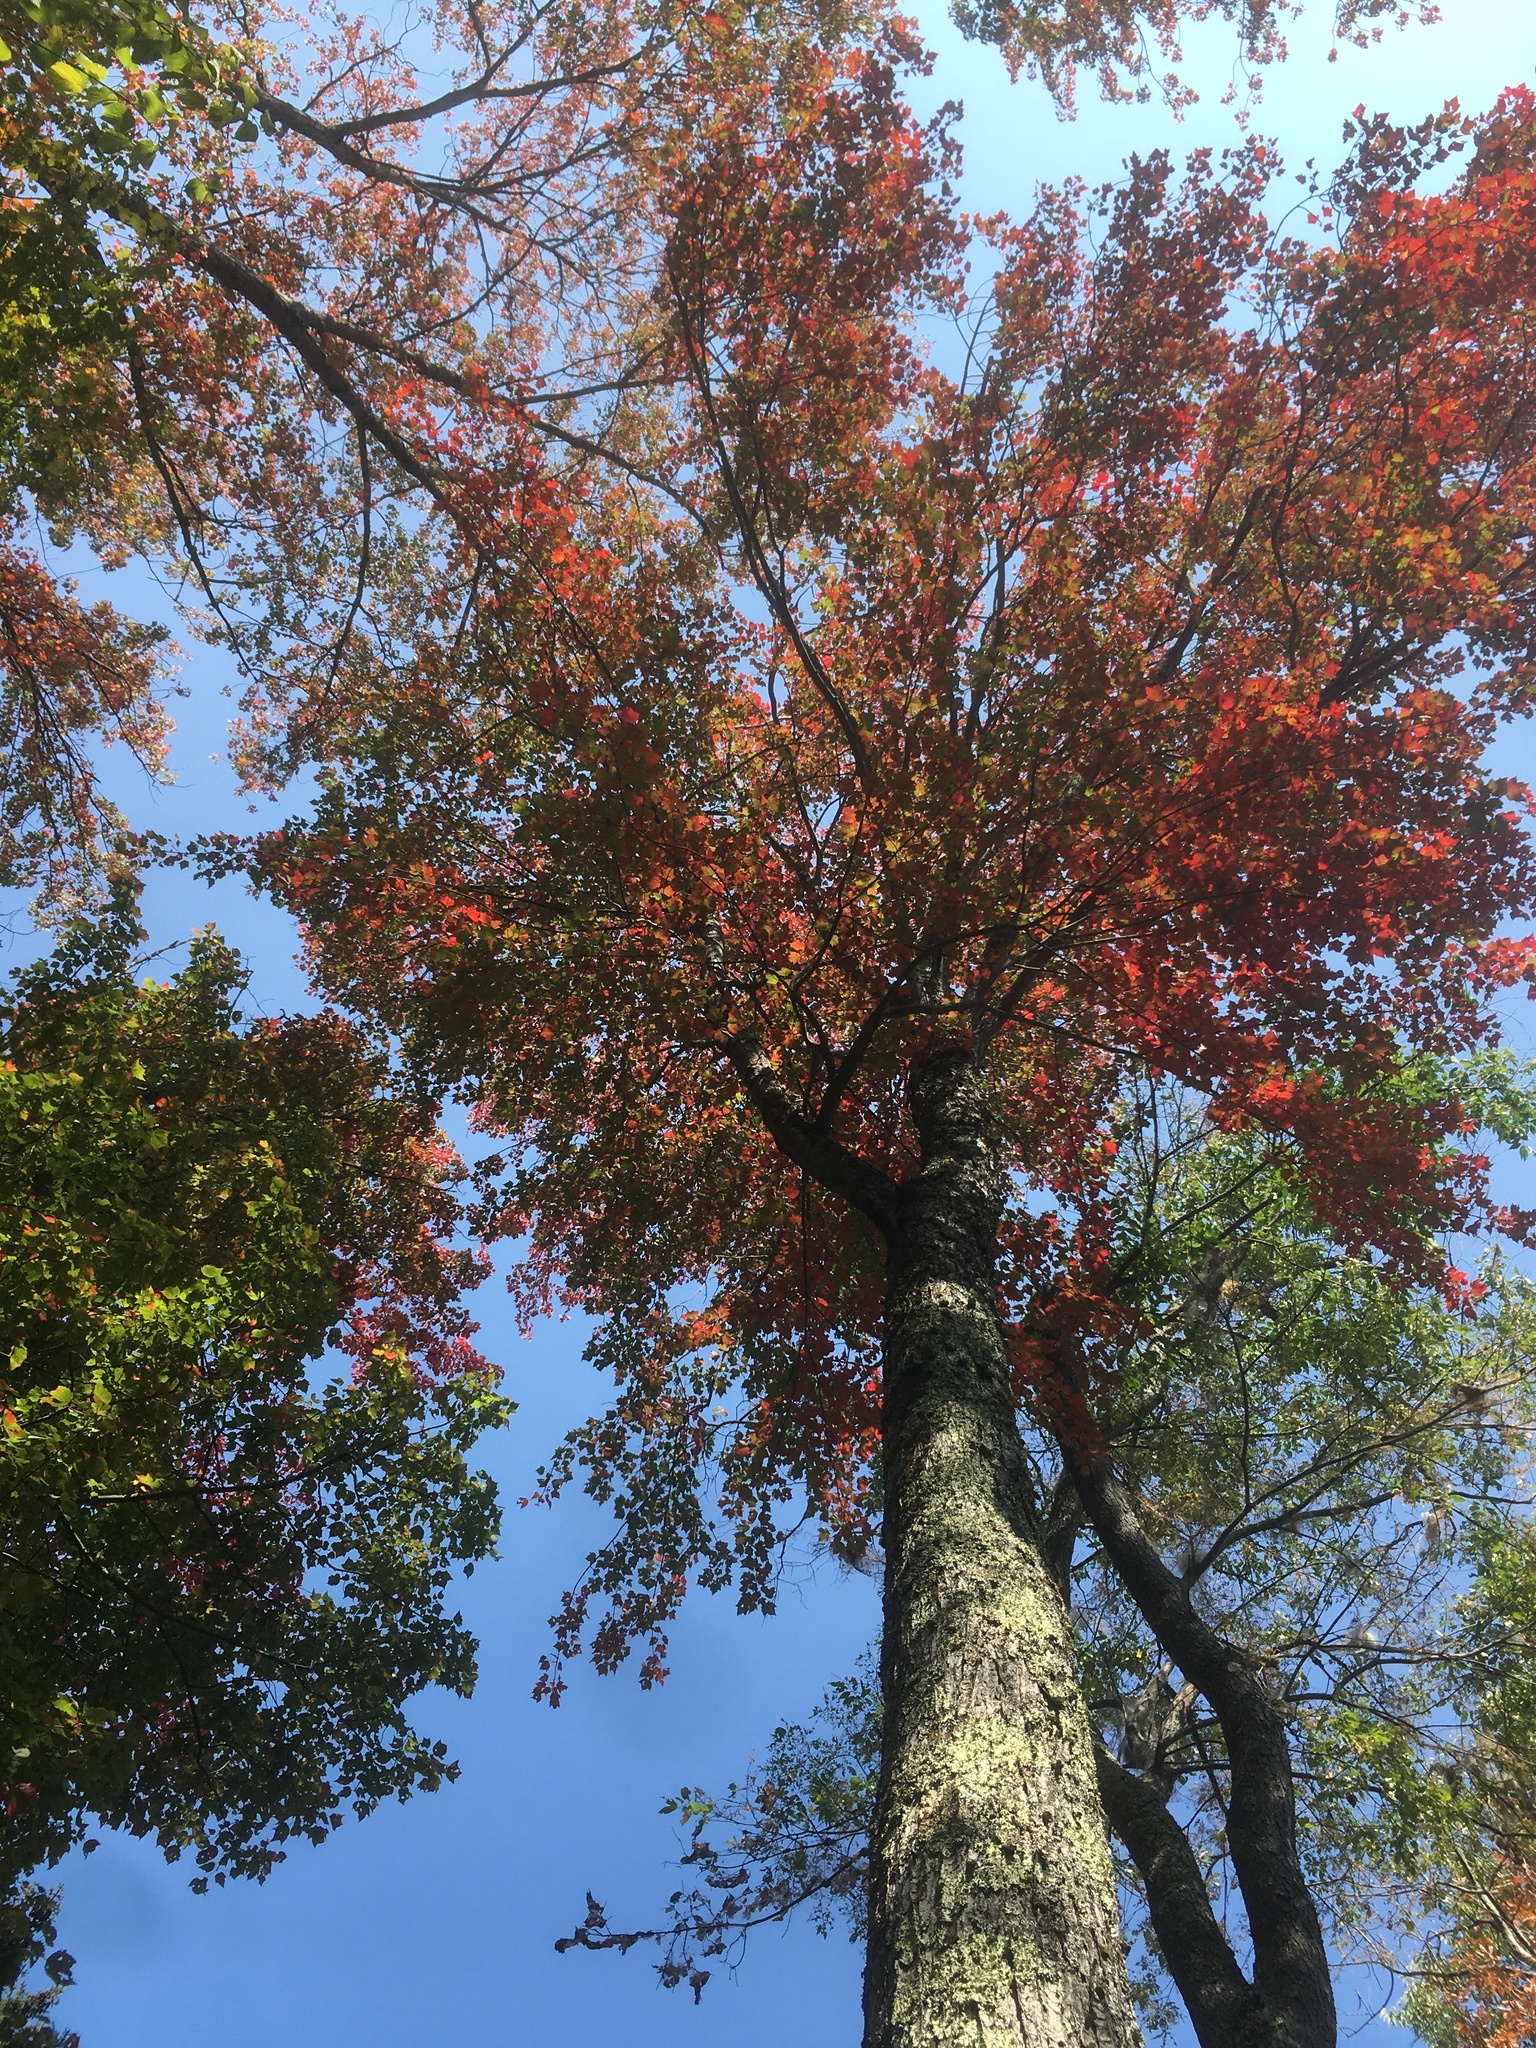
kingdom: Plantae
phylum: Tracheophyta
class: Magnoliopsida
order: Sapindales
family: Sapindaceae
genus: Acer
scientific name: Acer rubrum
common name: Red maple
